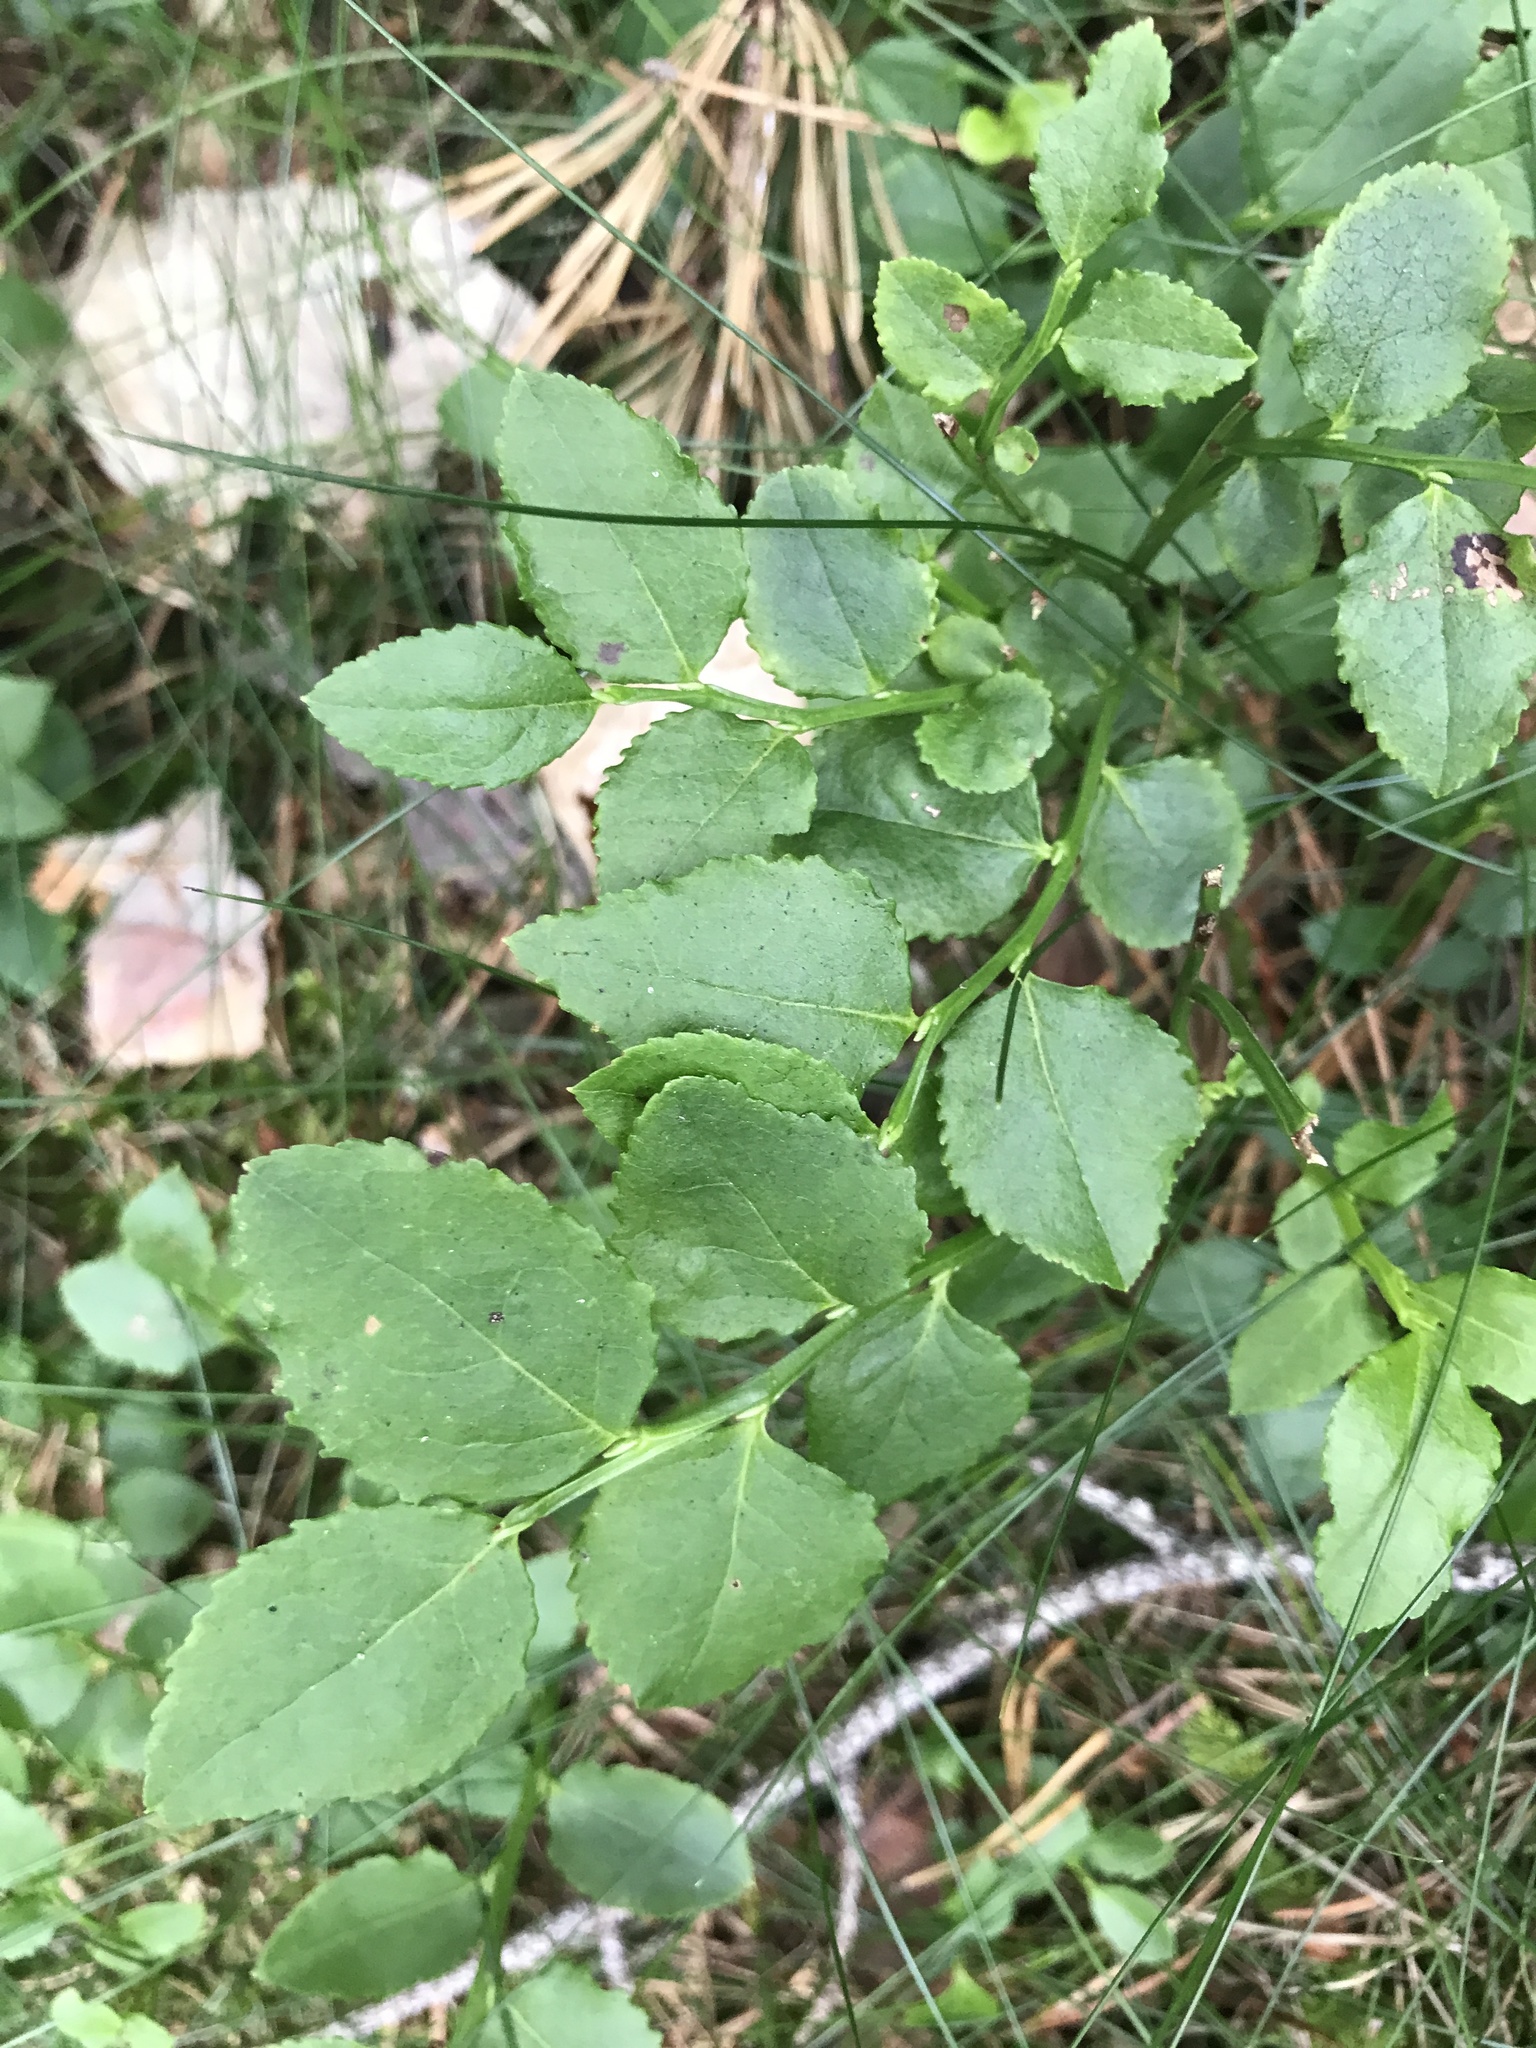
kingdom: Plantae
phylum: Tracheophyta
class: Magnoliopsida
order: Ericales
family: Ericaceae
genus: Vaccinium
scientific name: Vaccinium myrtillus
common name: Bilberry
